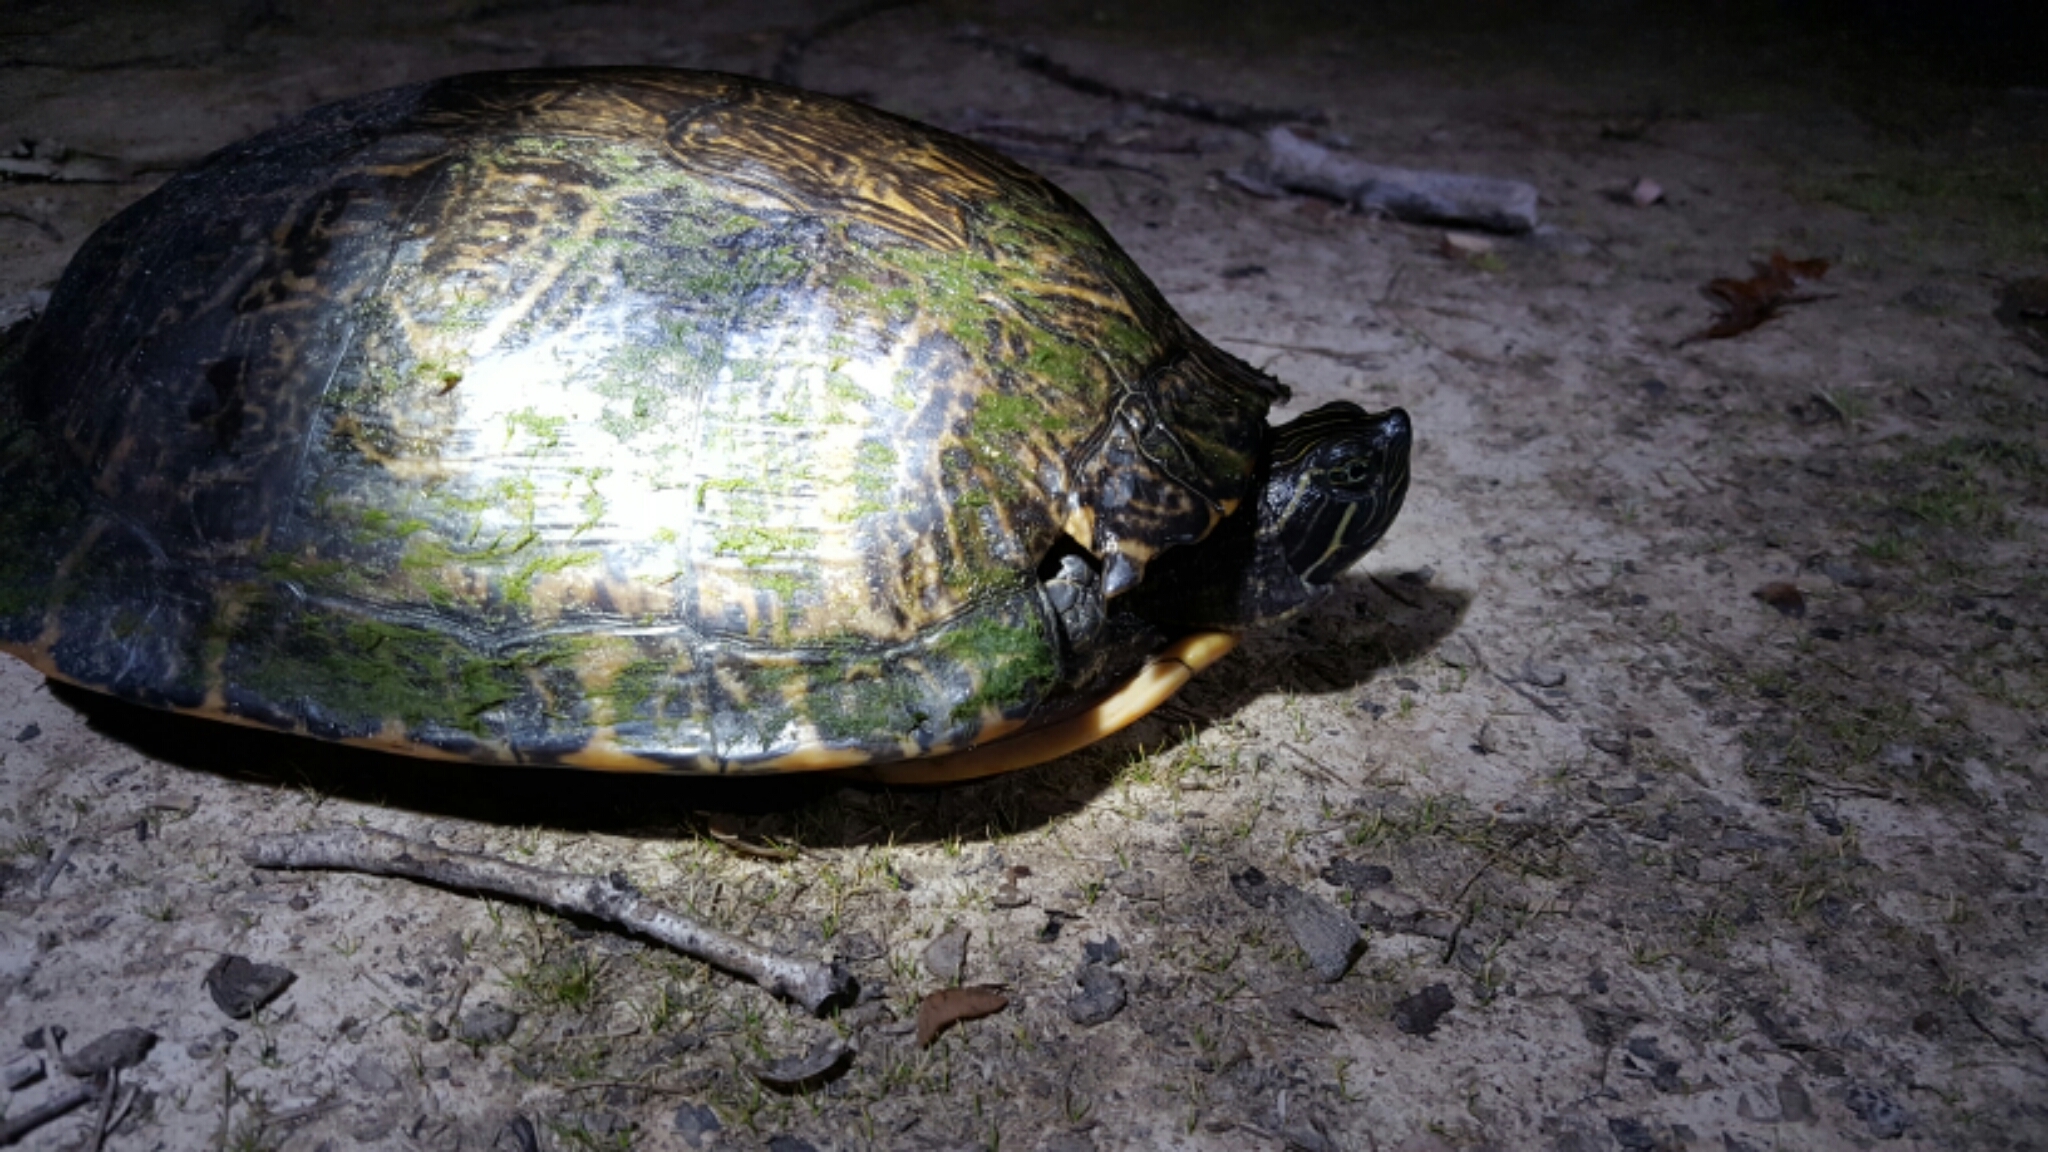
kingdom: Animalia
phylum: Chordata
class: Testudines
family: Emydidae
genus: Pseudemys
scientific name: Pseudemys concinna
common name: Eastern river cooter
